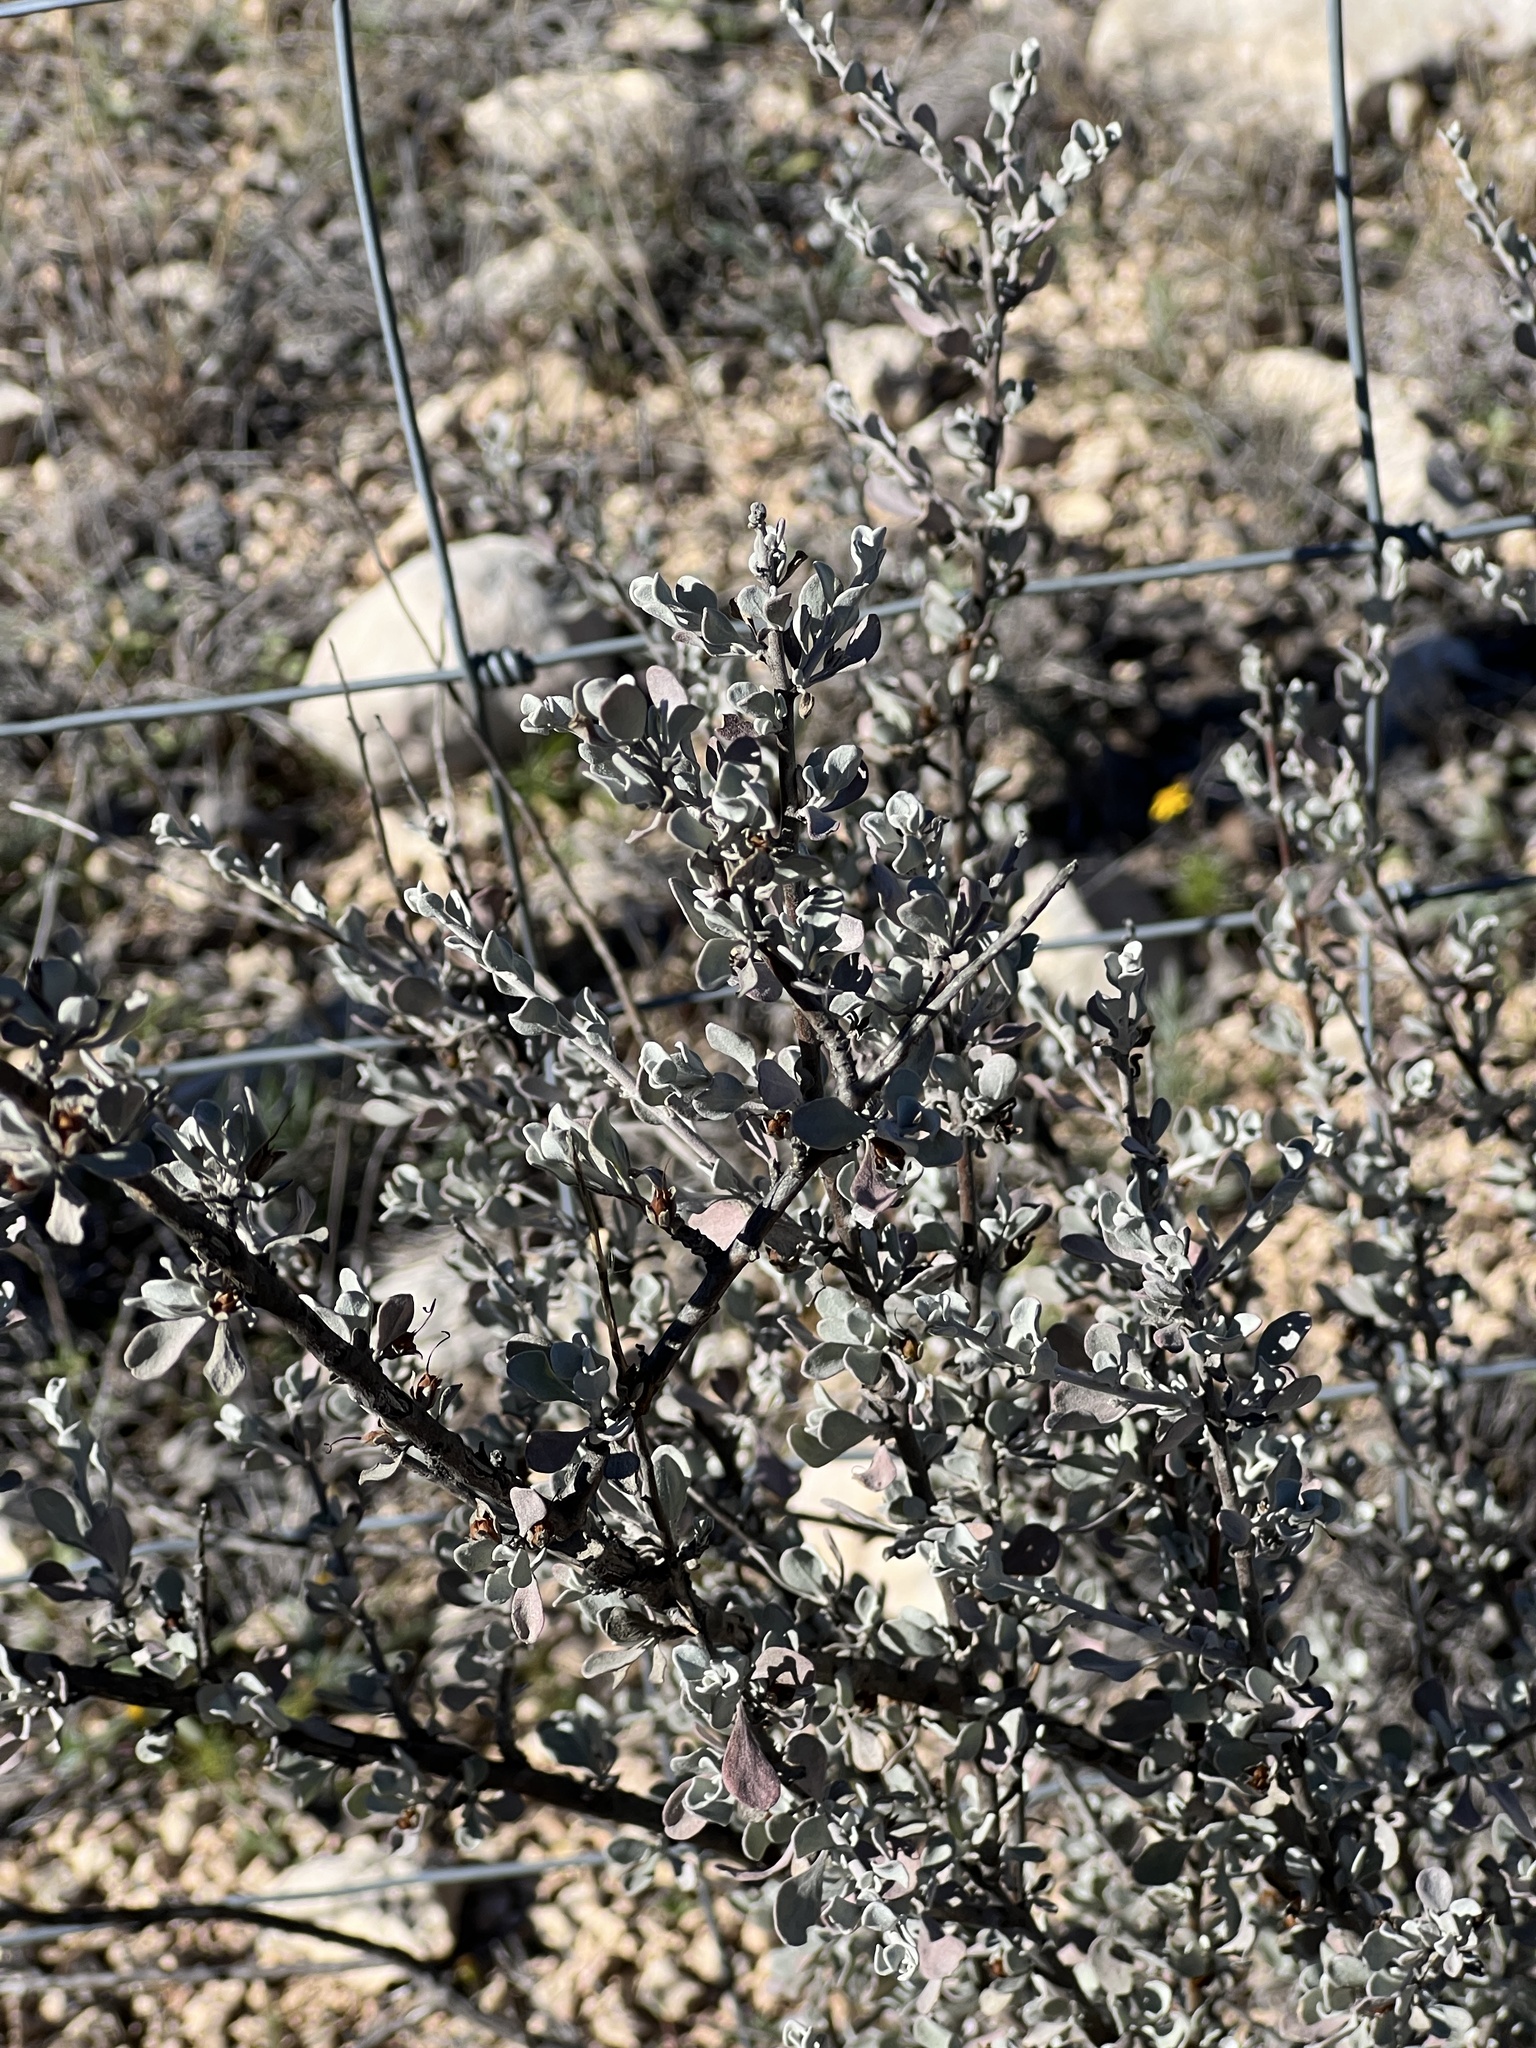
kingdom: Plantae
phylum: Tracheophyta
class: Magnoliopsida
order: Lamiales
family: Scrophulariaceae
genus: Leucophyllum
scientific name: Leucophyllum minus
